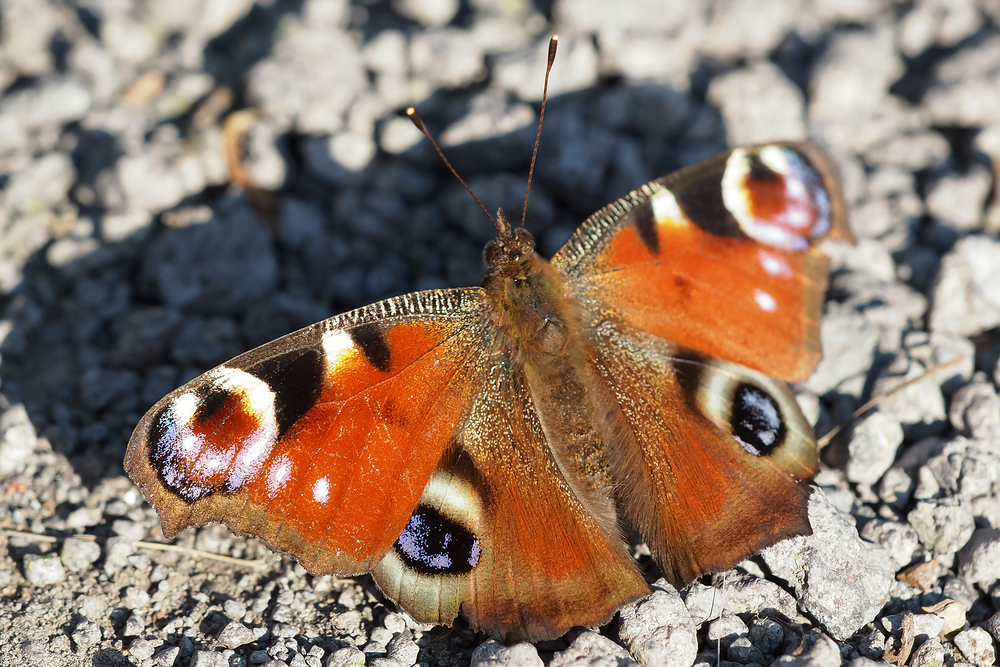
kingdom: Animalia
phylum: Arthropoda
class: Insecta
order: Lepidoptera
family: Nymphalidae
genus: Aglais
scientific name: Aglais io
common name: Peacock
